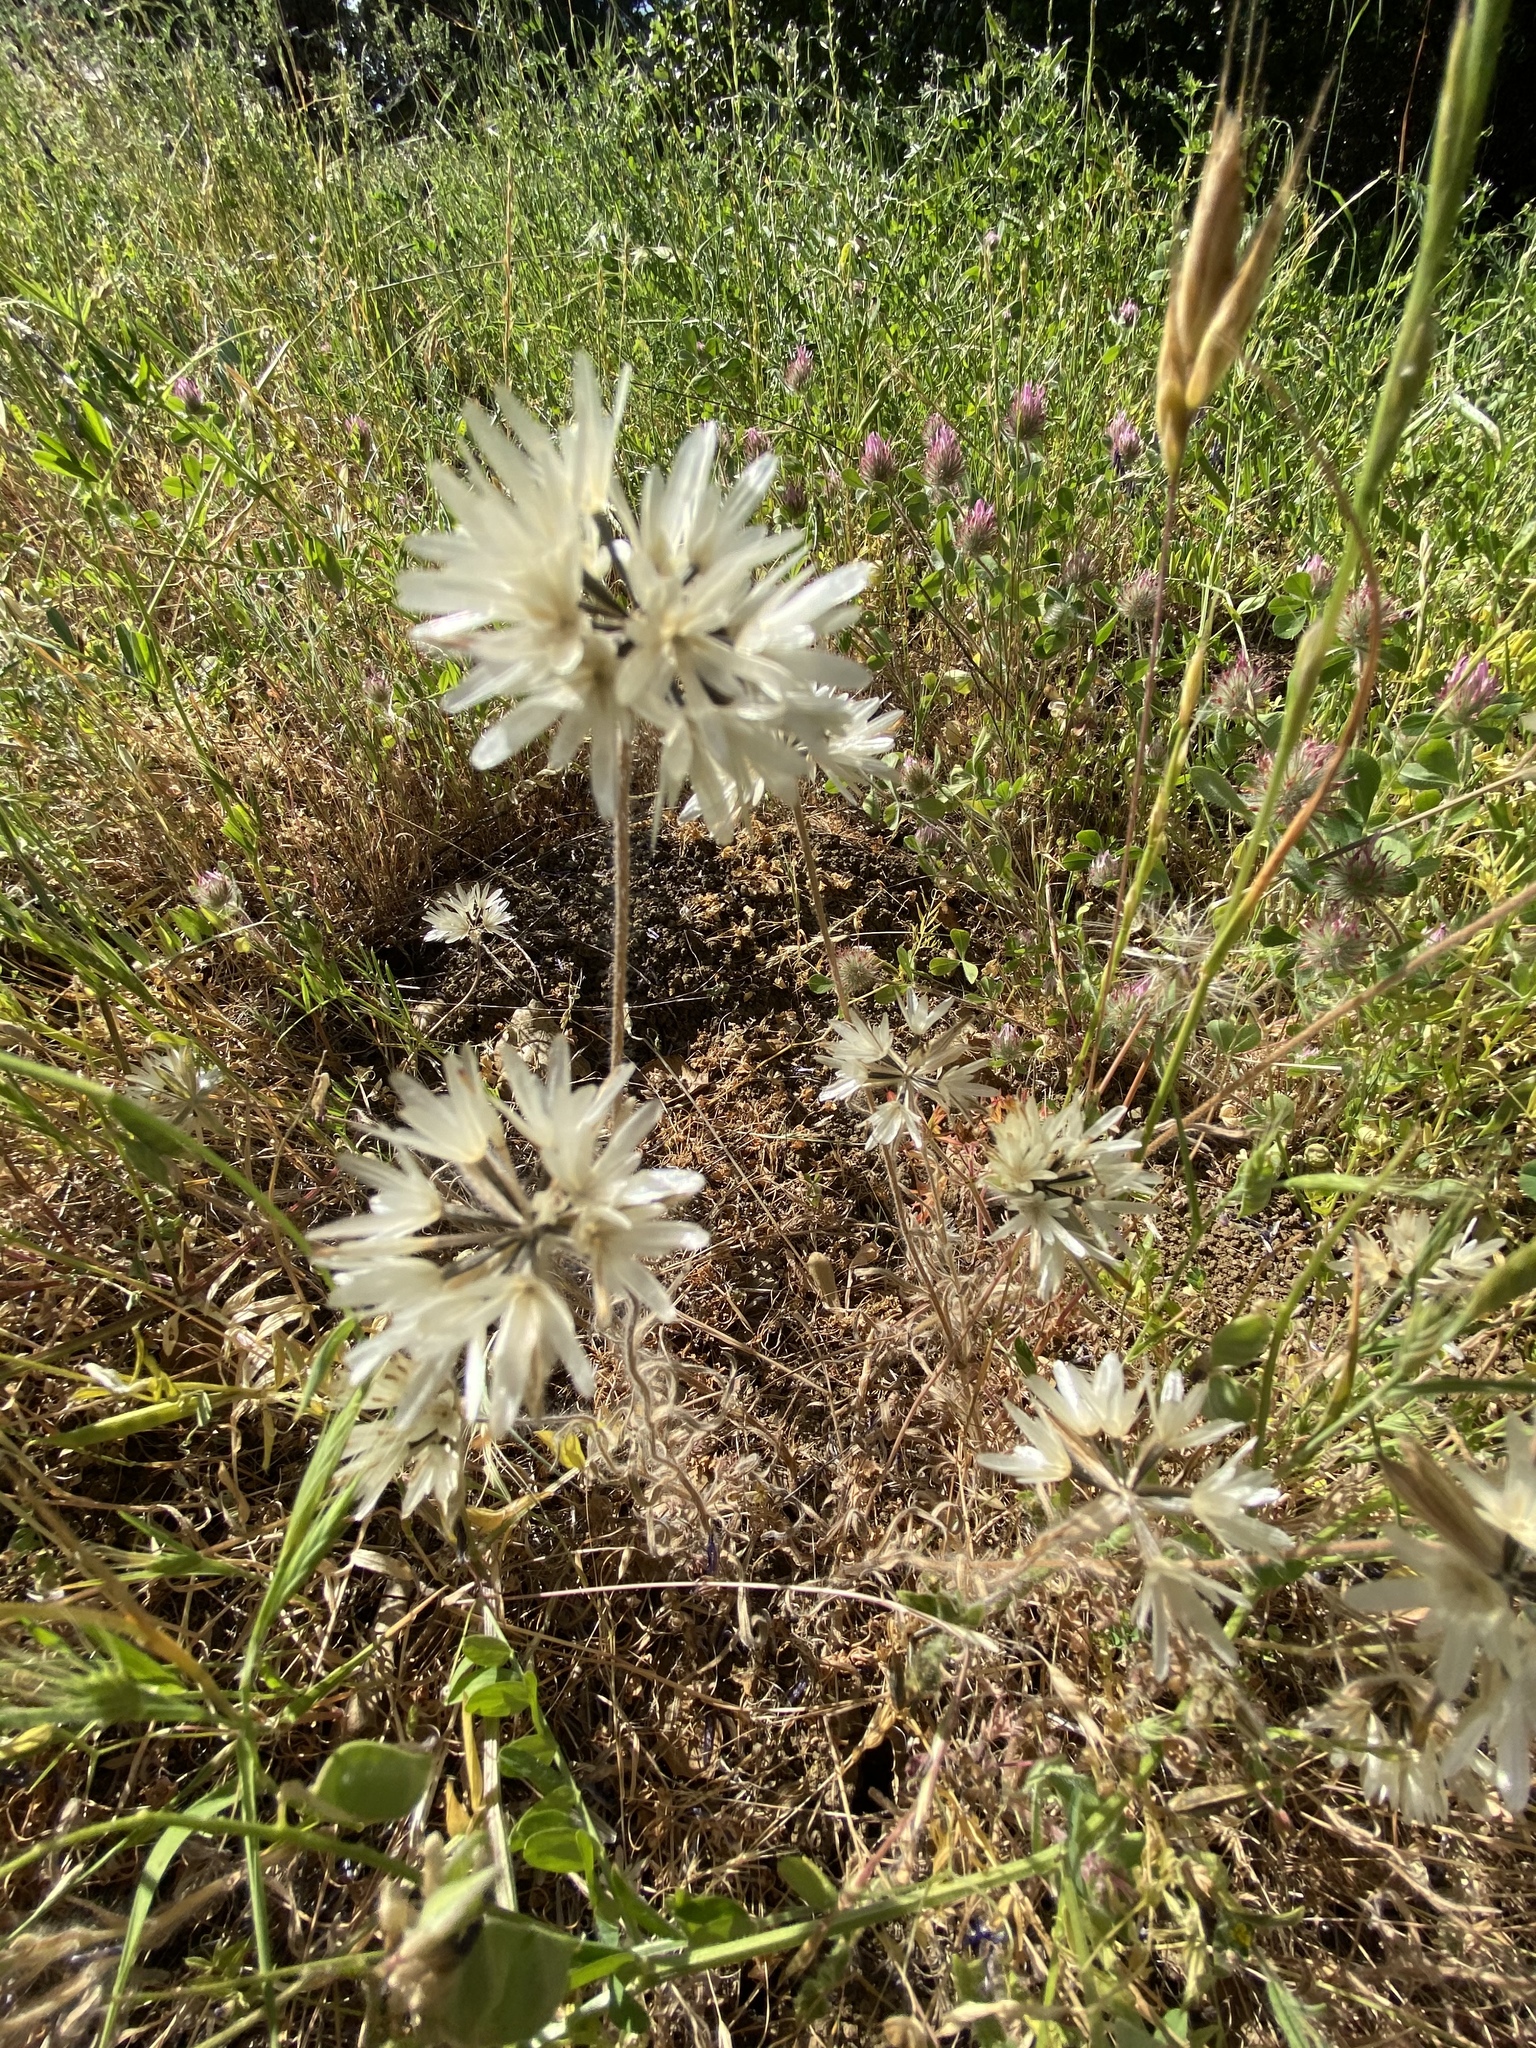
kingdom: Plantae
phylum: Tracheophyta
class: Magnoliopsida
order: Asterales
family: Asteraceae
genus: Achyrachaena
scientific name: Achyrachaena mollis
